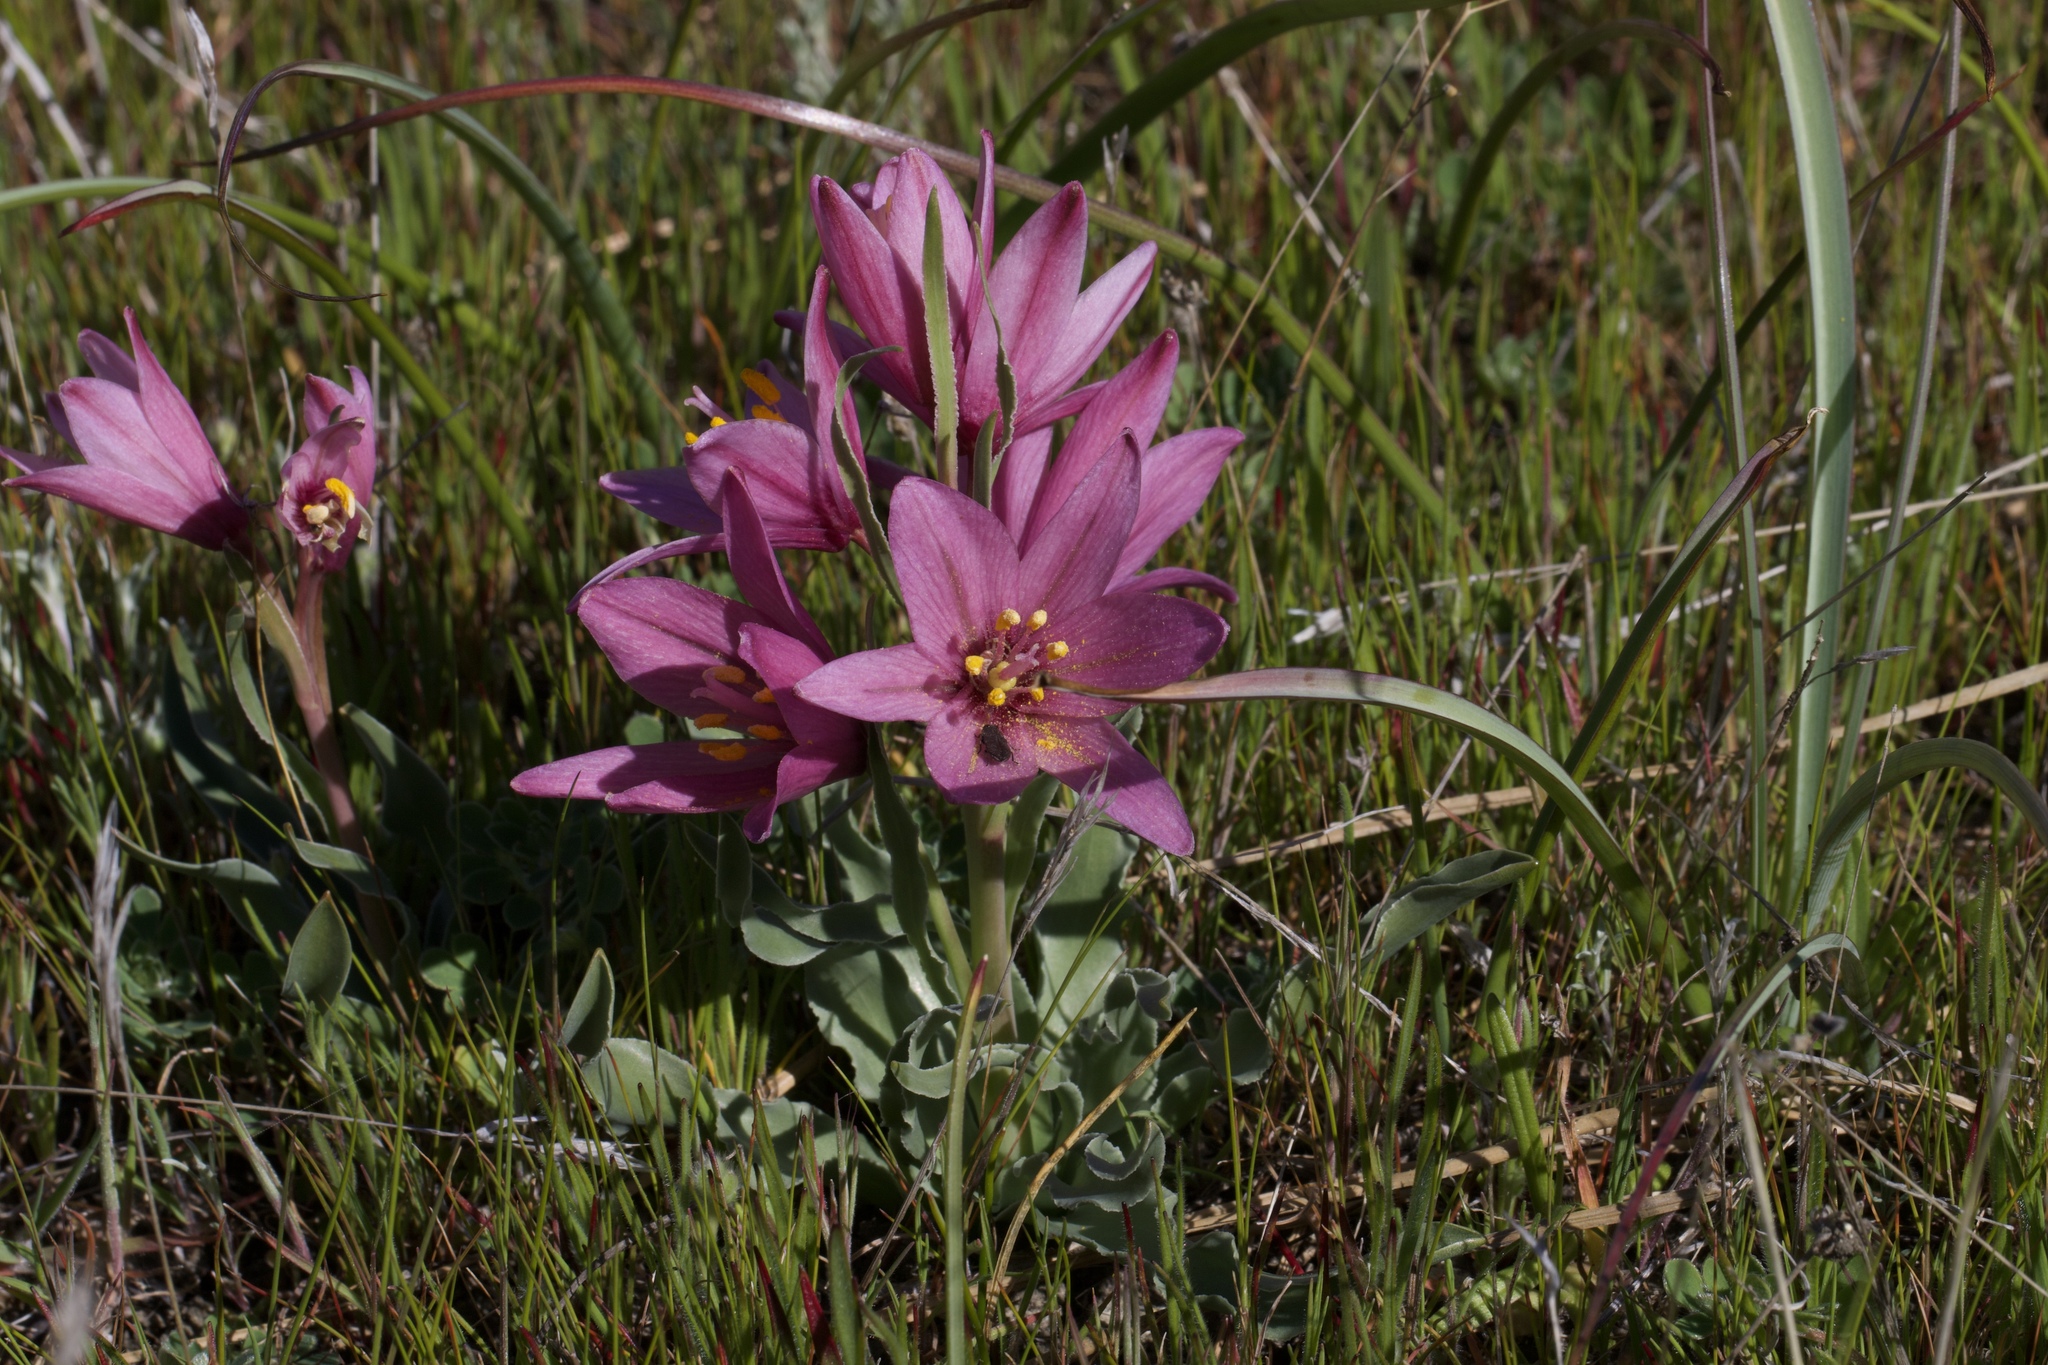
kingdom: Plantae
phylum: Tracheophyta
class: Liliopsida
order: Liliales
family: Liliaceae
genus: Fritillaria
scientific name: Fritillaria pluriflora
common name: Adobe-lily
